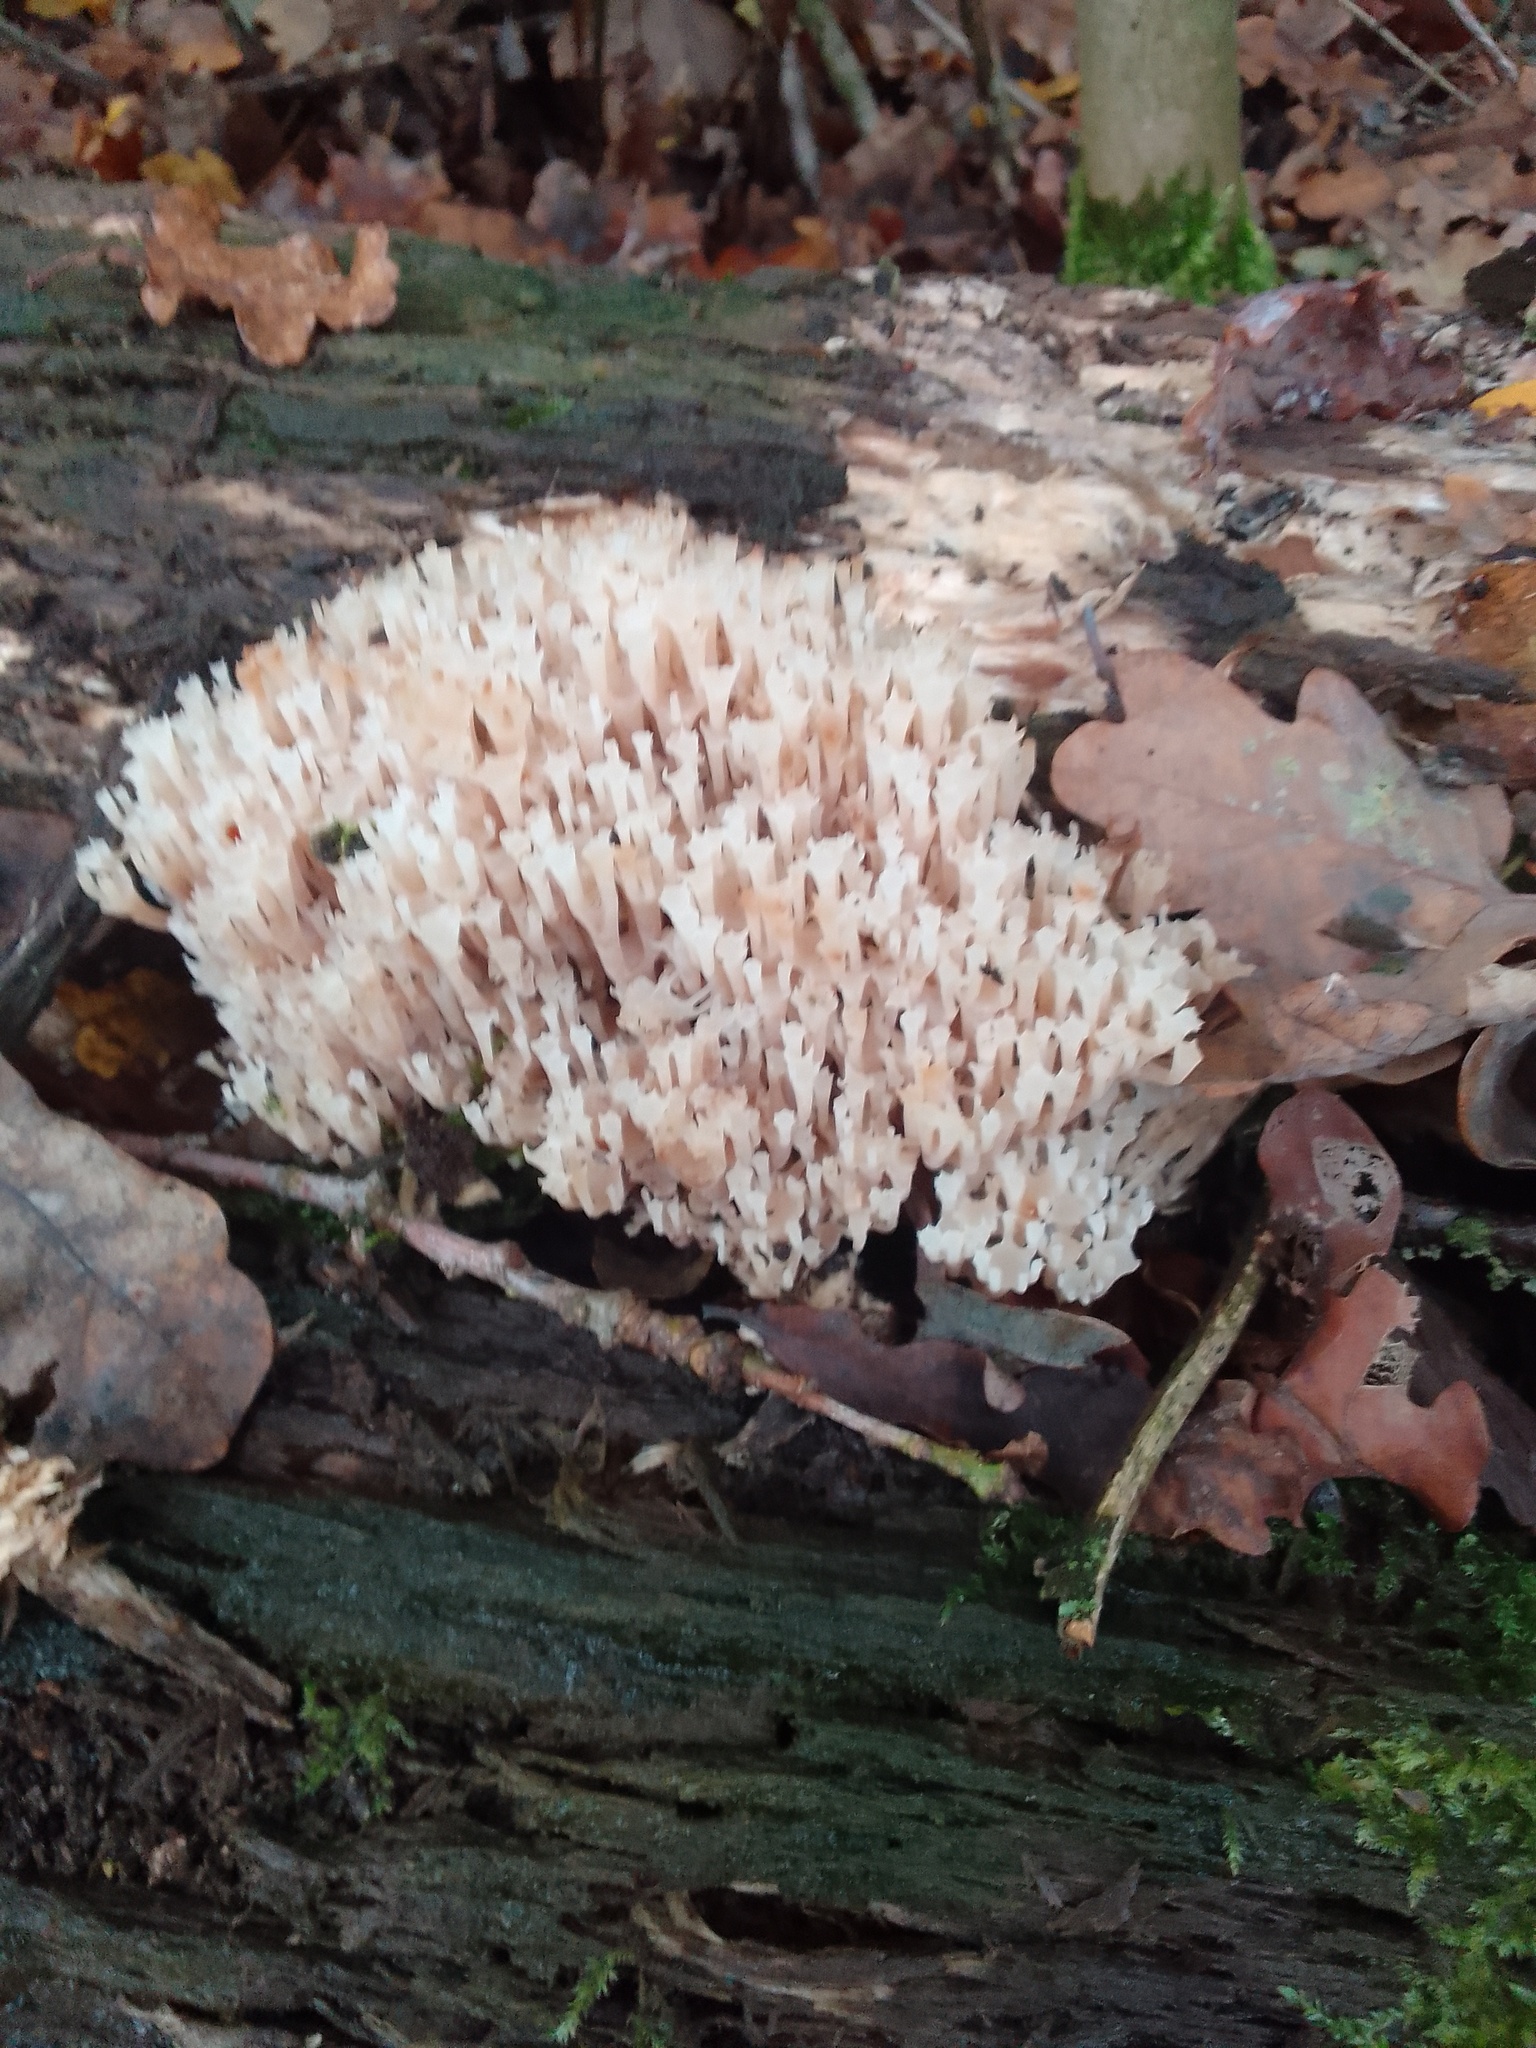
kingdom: Fungi
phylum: Basidiomycota
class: Agaricomycetes
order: Russulales
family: Auriscalpiaceae
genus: Artomyces
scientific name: Artomyces pyxidatus
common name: Crown-tipped coral fungus
